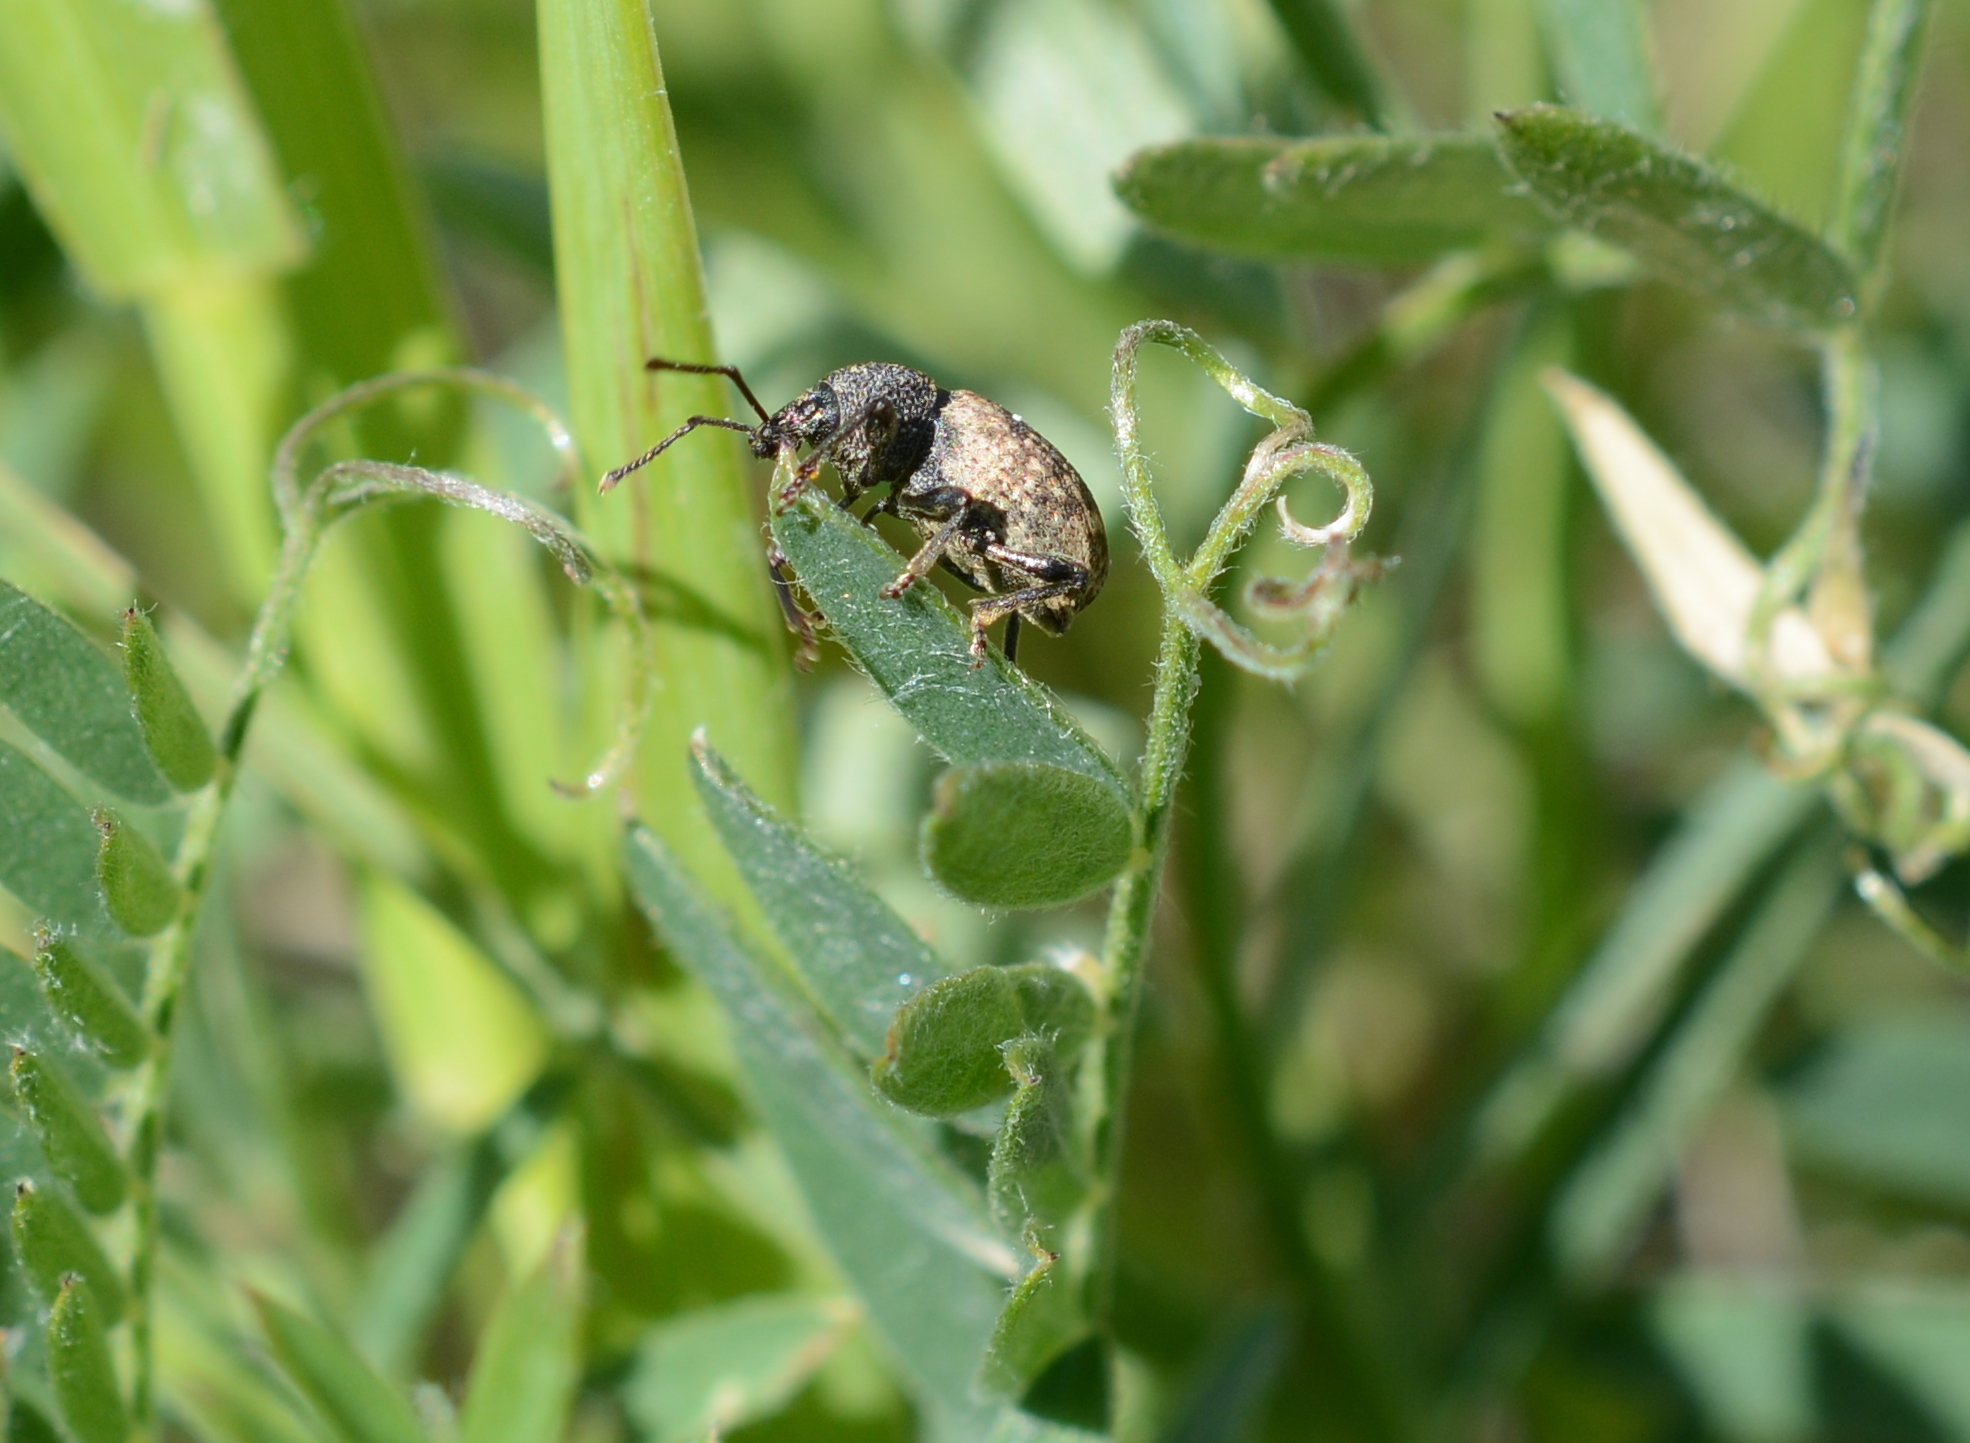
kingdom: Animalia
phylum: Arthropoda
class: Insecta
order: Coleoptera
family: Curculionidae
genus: Otiorhynchus
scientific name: Otiorhynchus raucus
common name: Weevil
